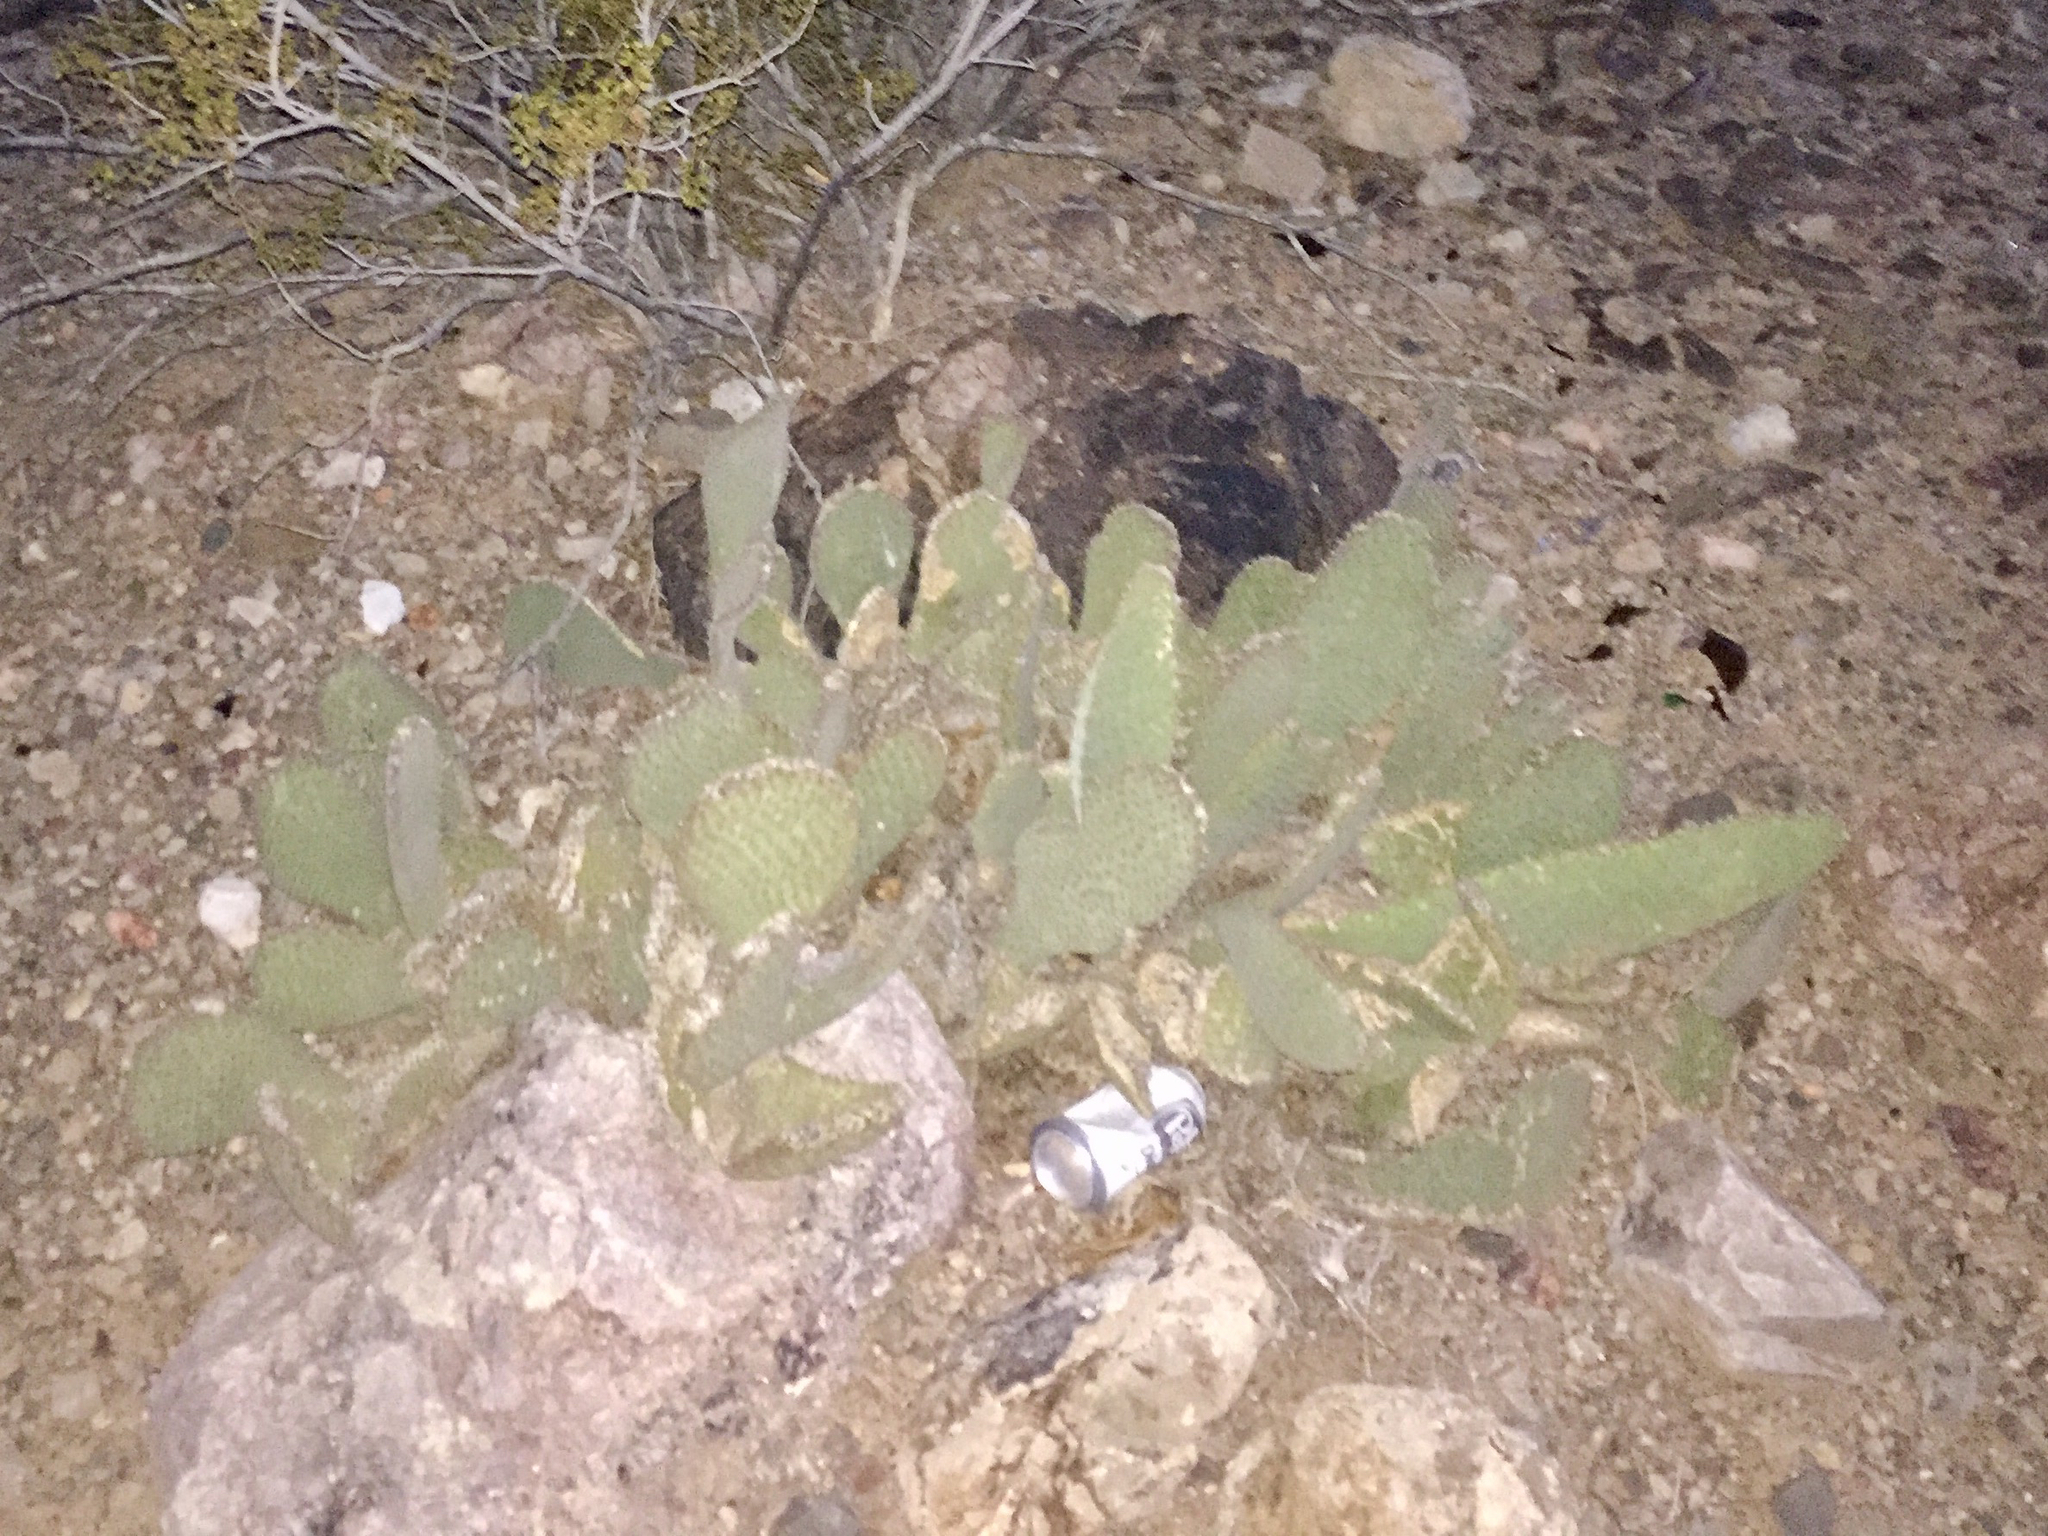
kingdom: Plantae
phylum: Tracheophyta
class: Magnoliopsida
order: Caryophyllales
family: Cactaceae
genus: Opuntia
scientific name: Opuntia basilaris
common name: Beavertail prickly-pear
